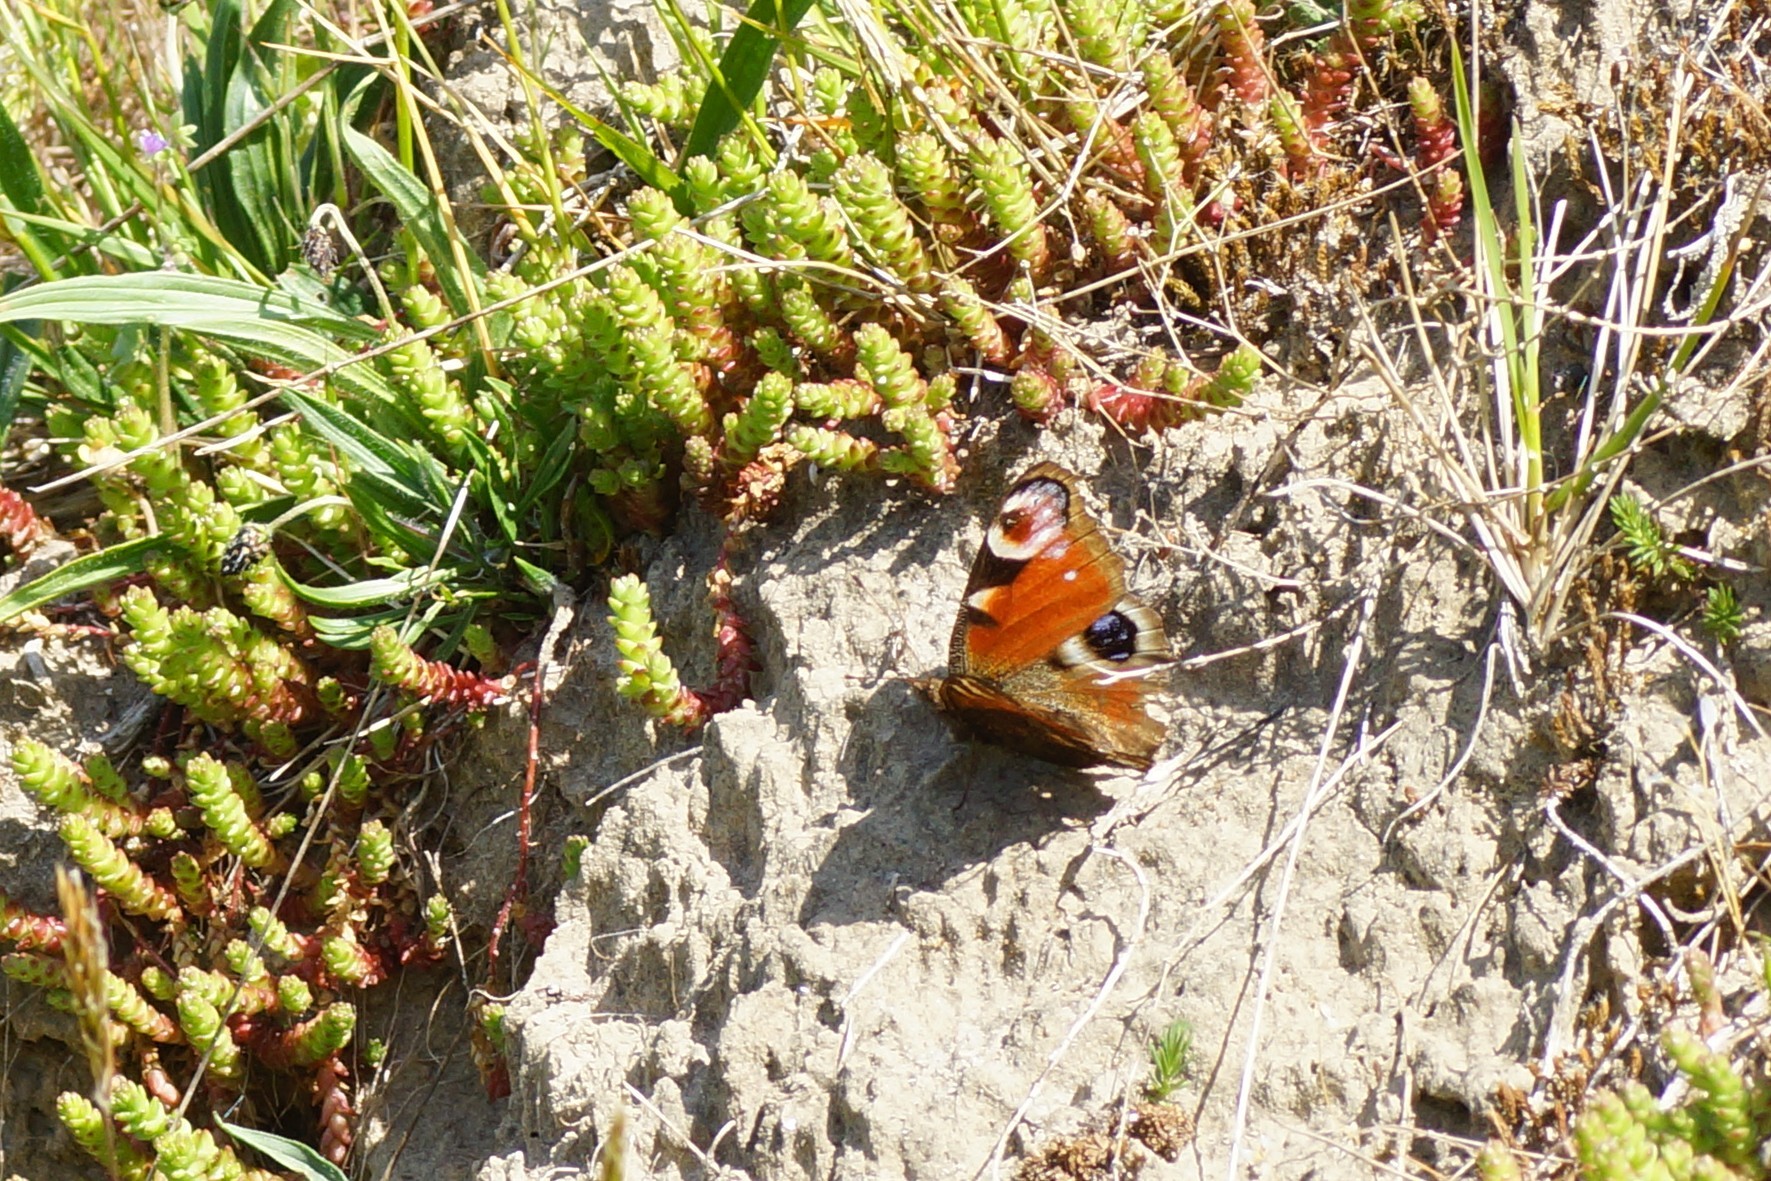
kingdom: Animalia
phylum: Arthropoda
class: Insecta
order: Lepidoptera
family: Nymphalidae
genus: Aglais
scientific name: Aglais io
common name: Peacock
